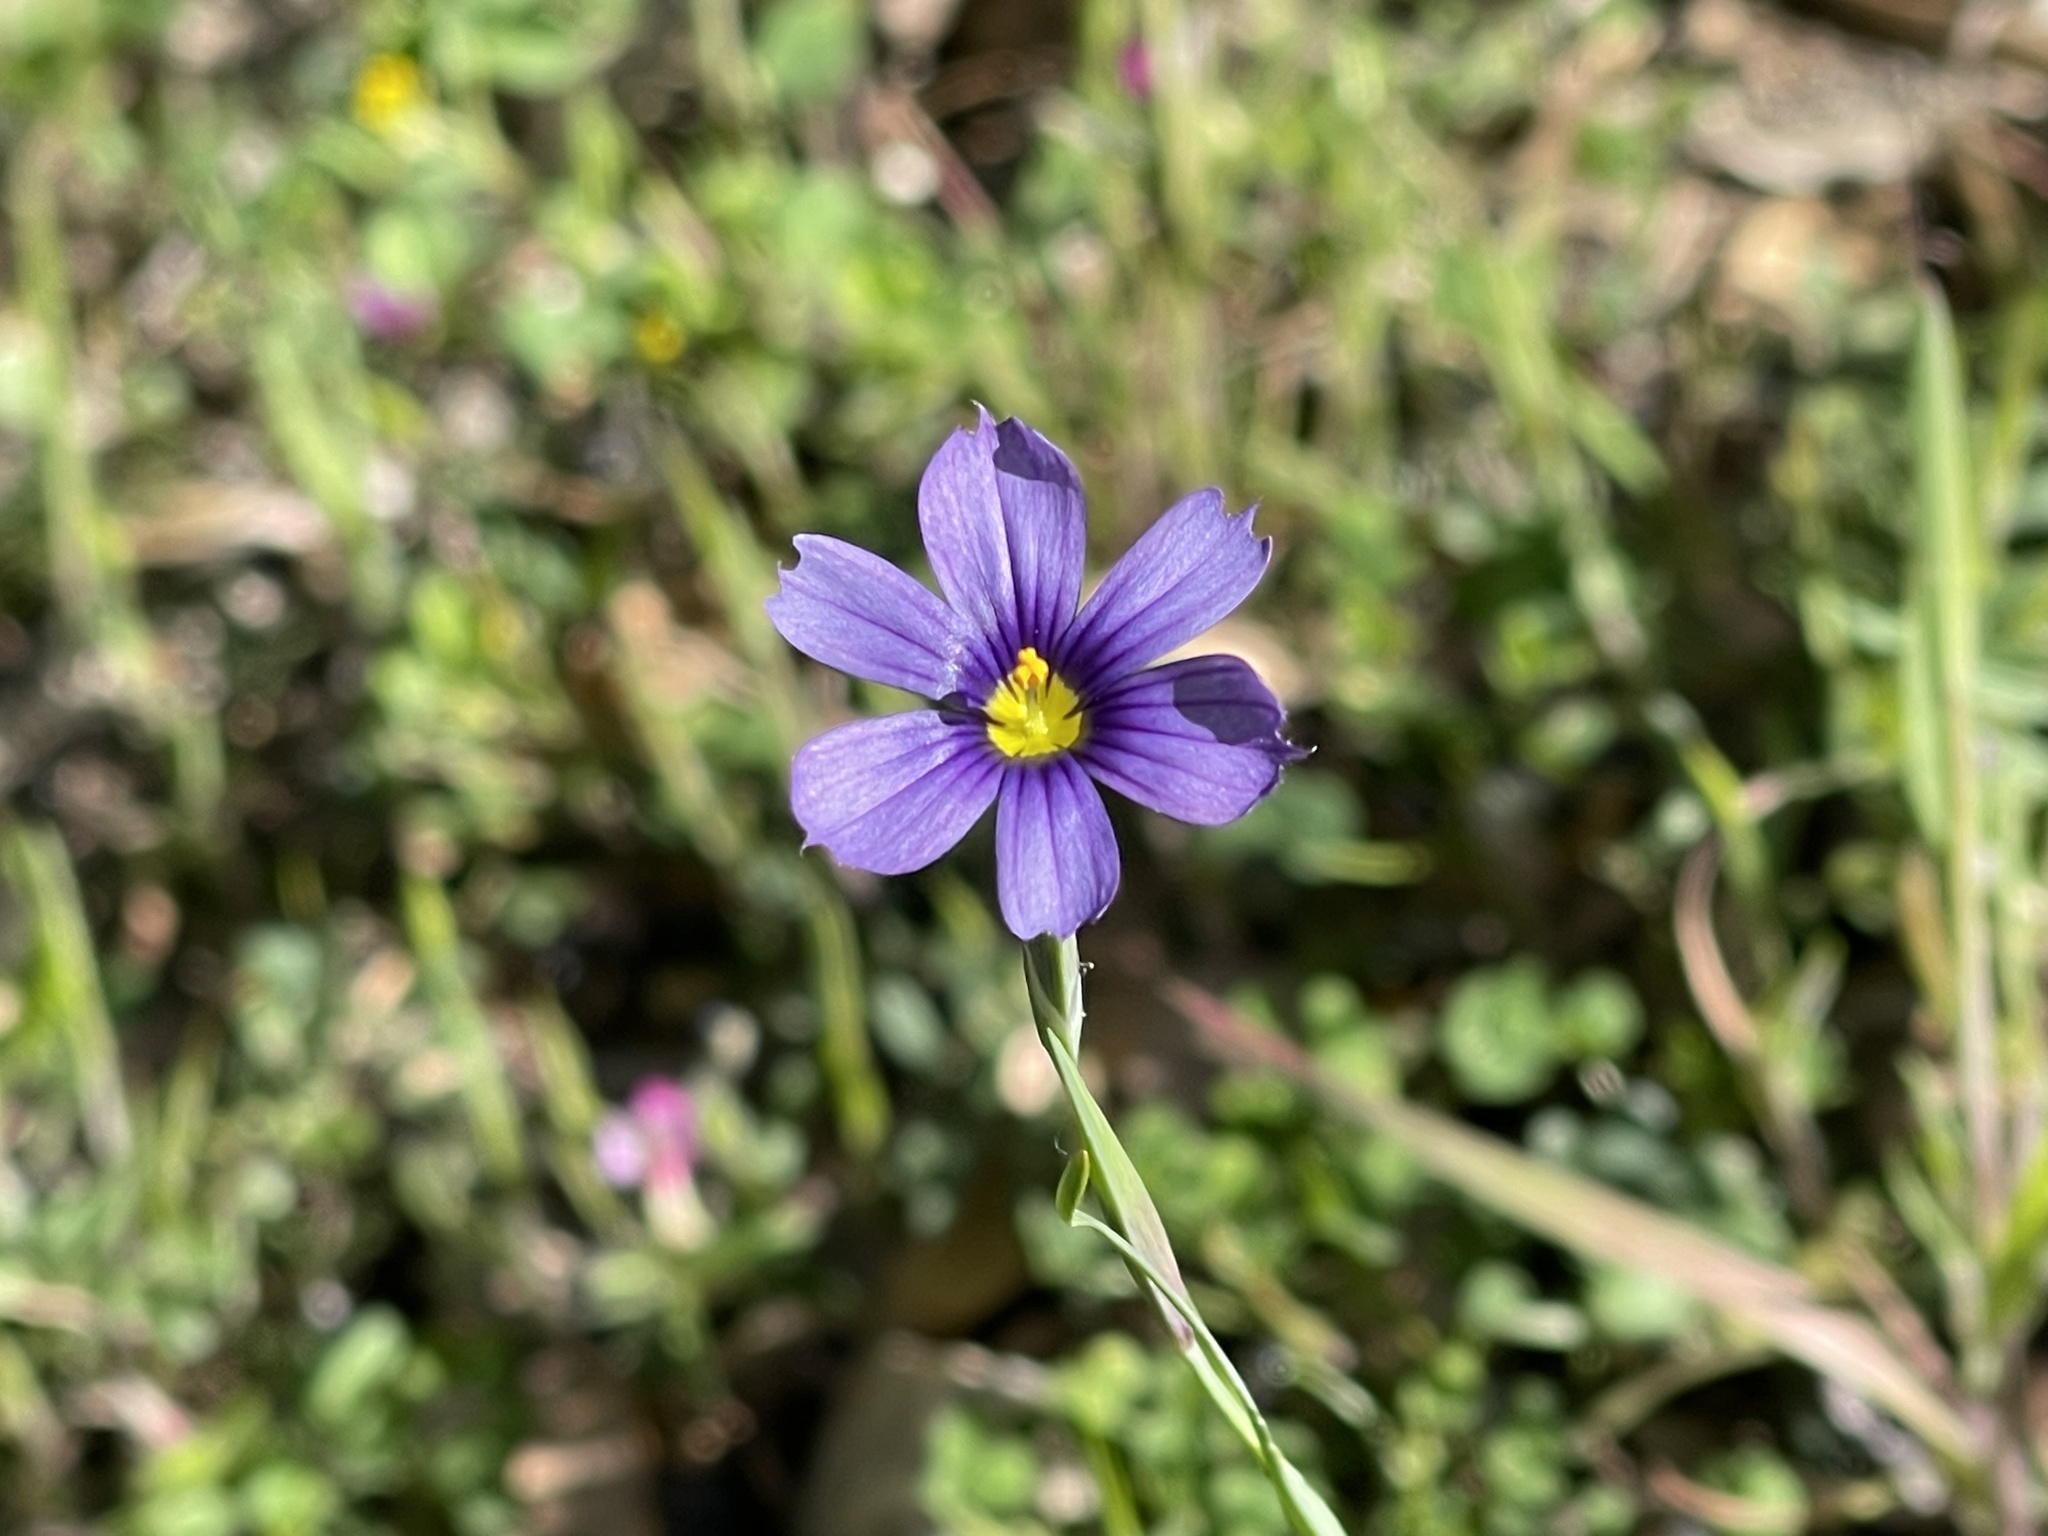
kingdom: Plantae
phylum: Tracheophyta
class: Liliopsida
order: Asparagales
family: Iridaceae
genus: Sisyrinchium
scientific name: Sisyrinchium bellum
